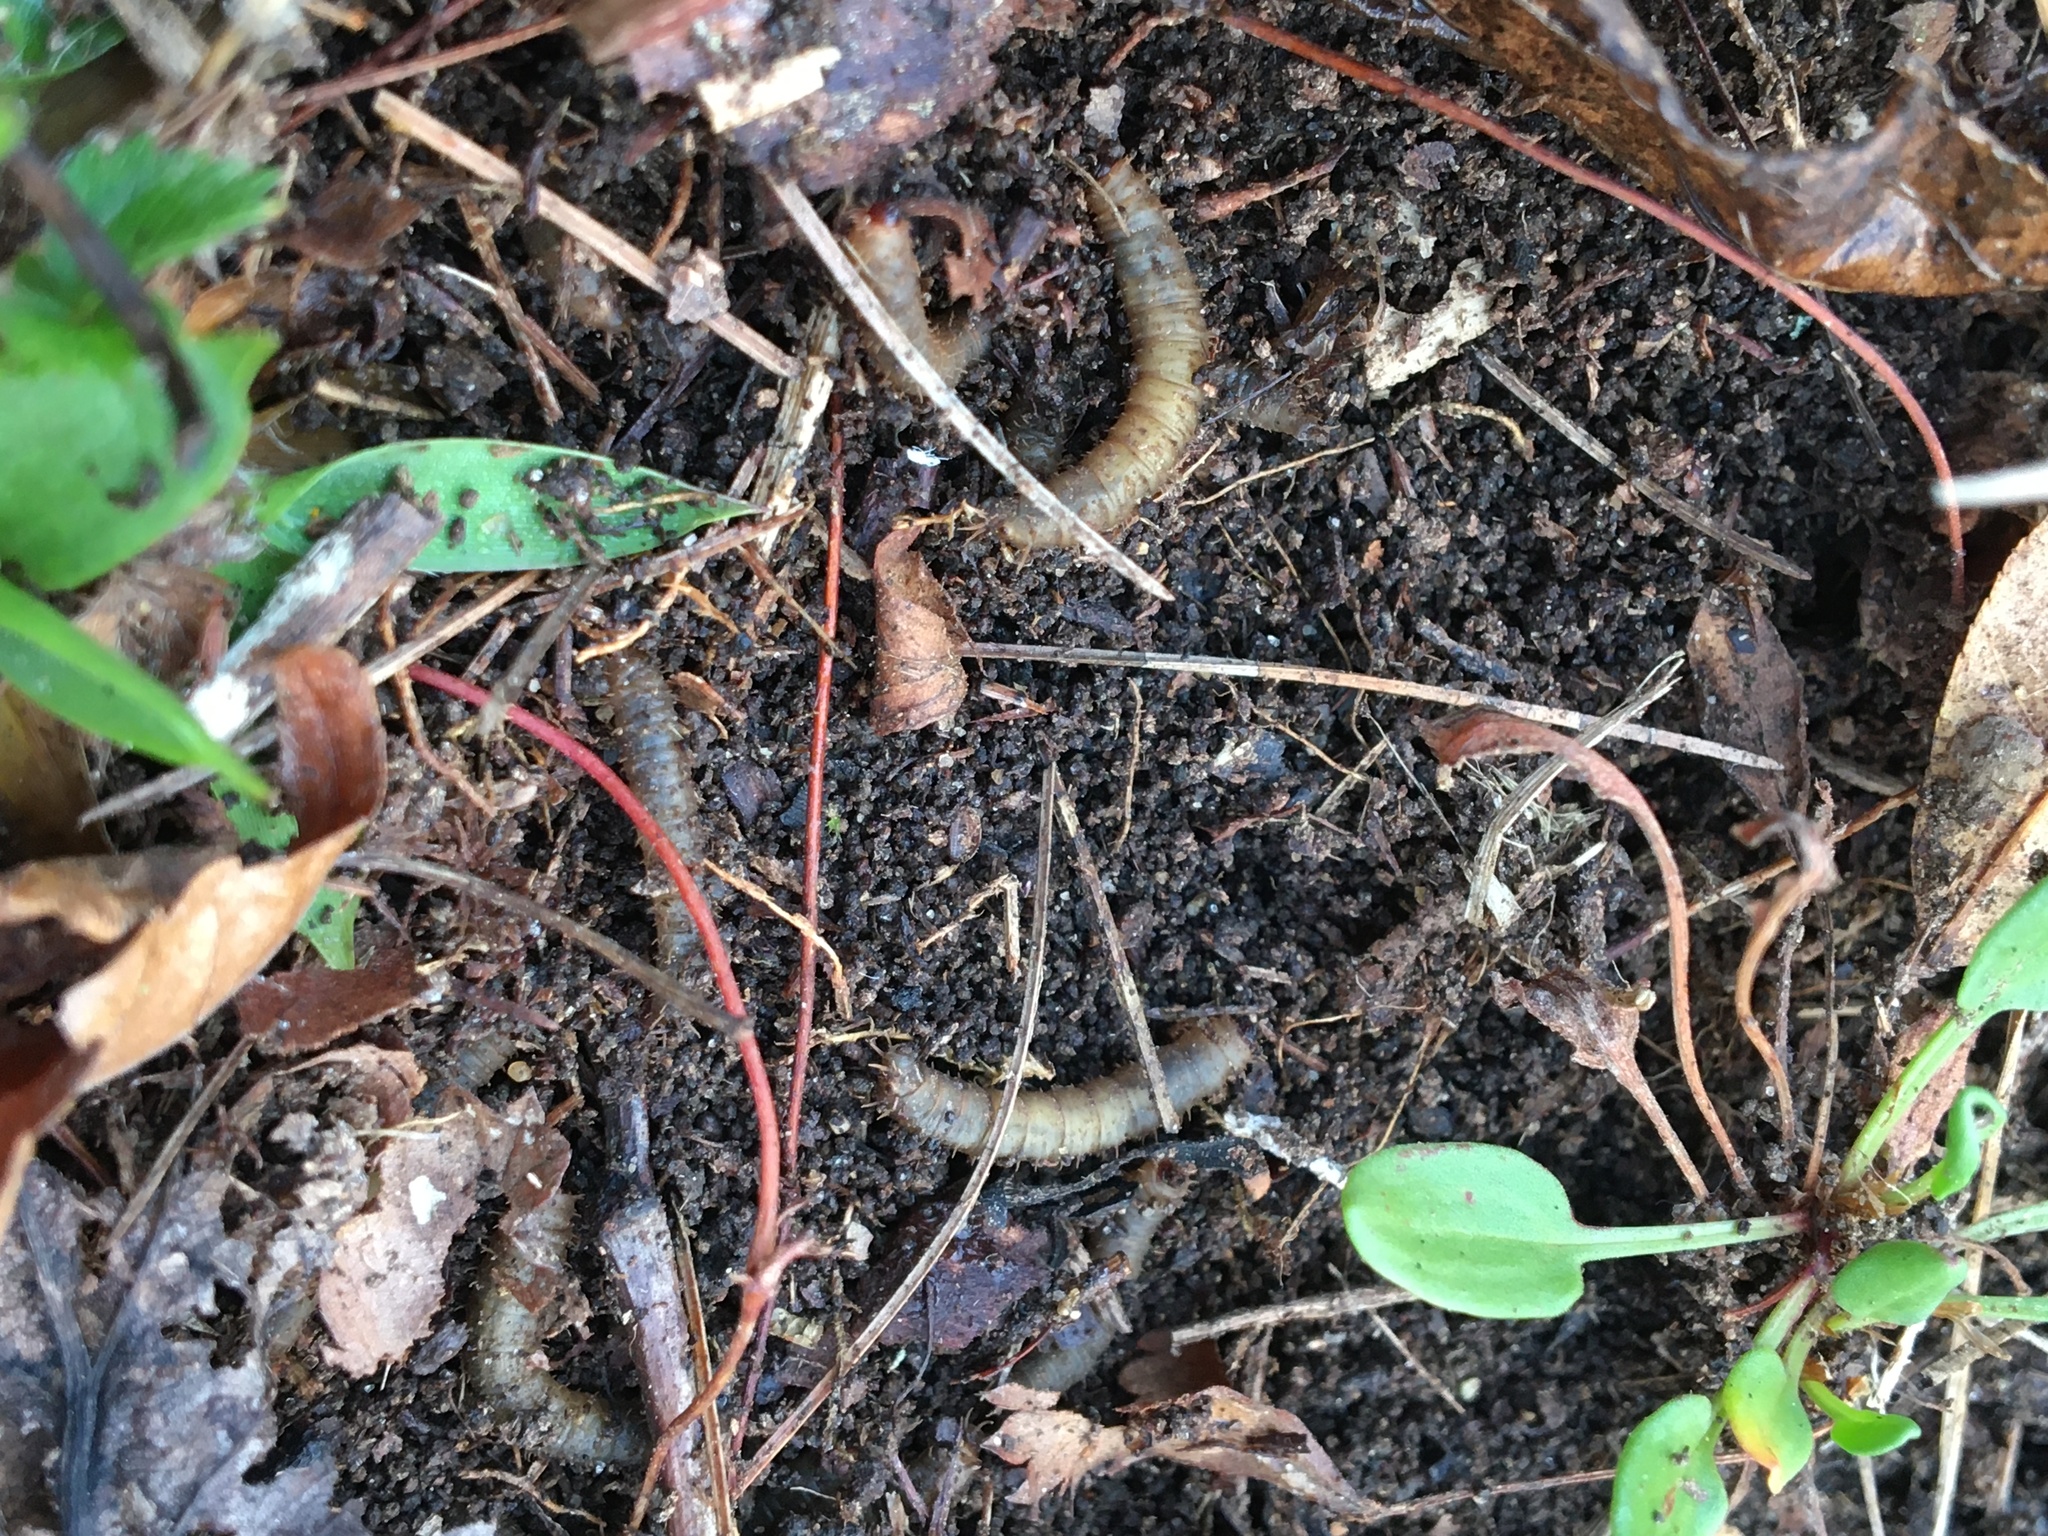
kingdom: Animalia
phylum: Arthropoda
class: Insecta
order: Diptera
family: Bibionidae
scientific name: Bibionidae
